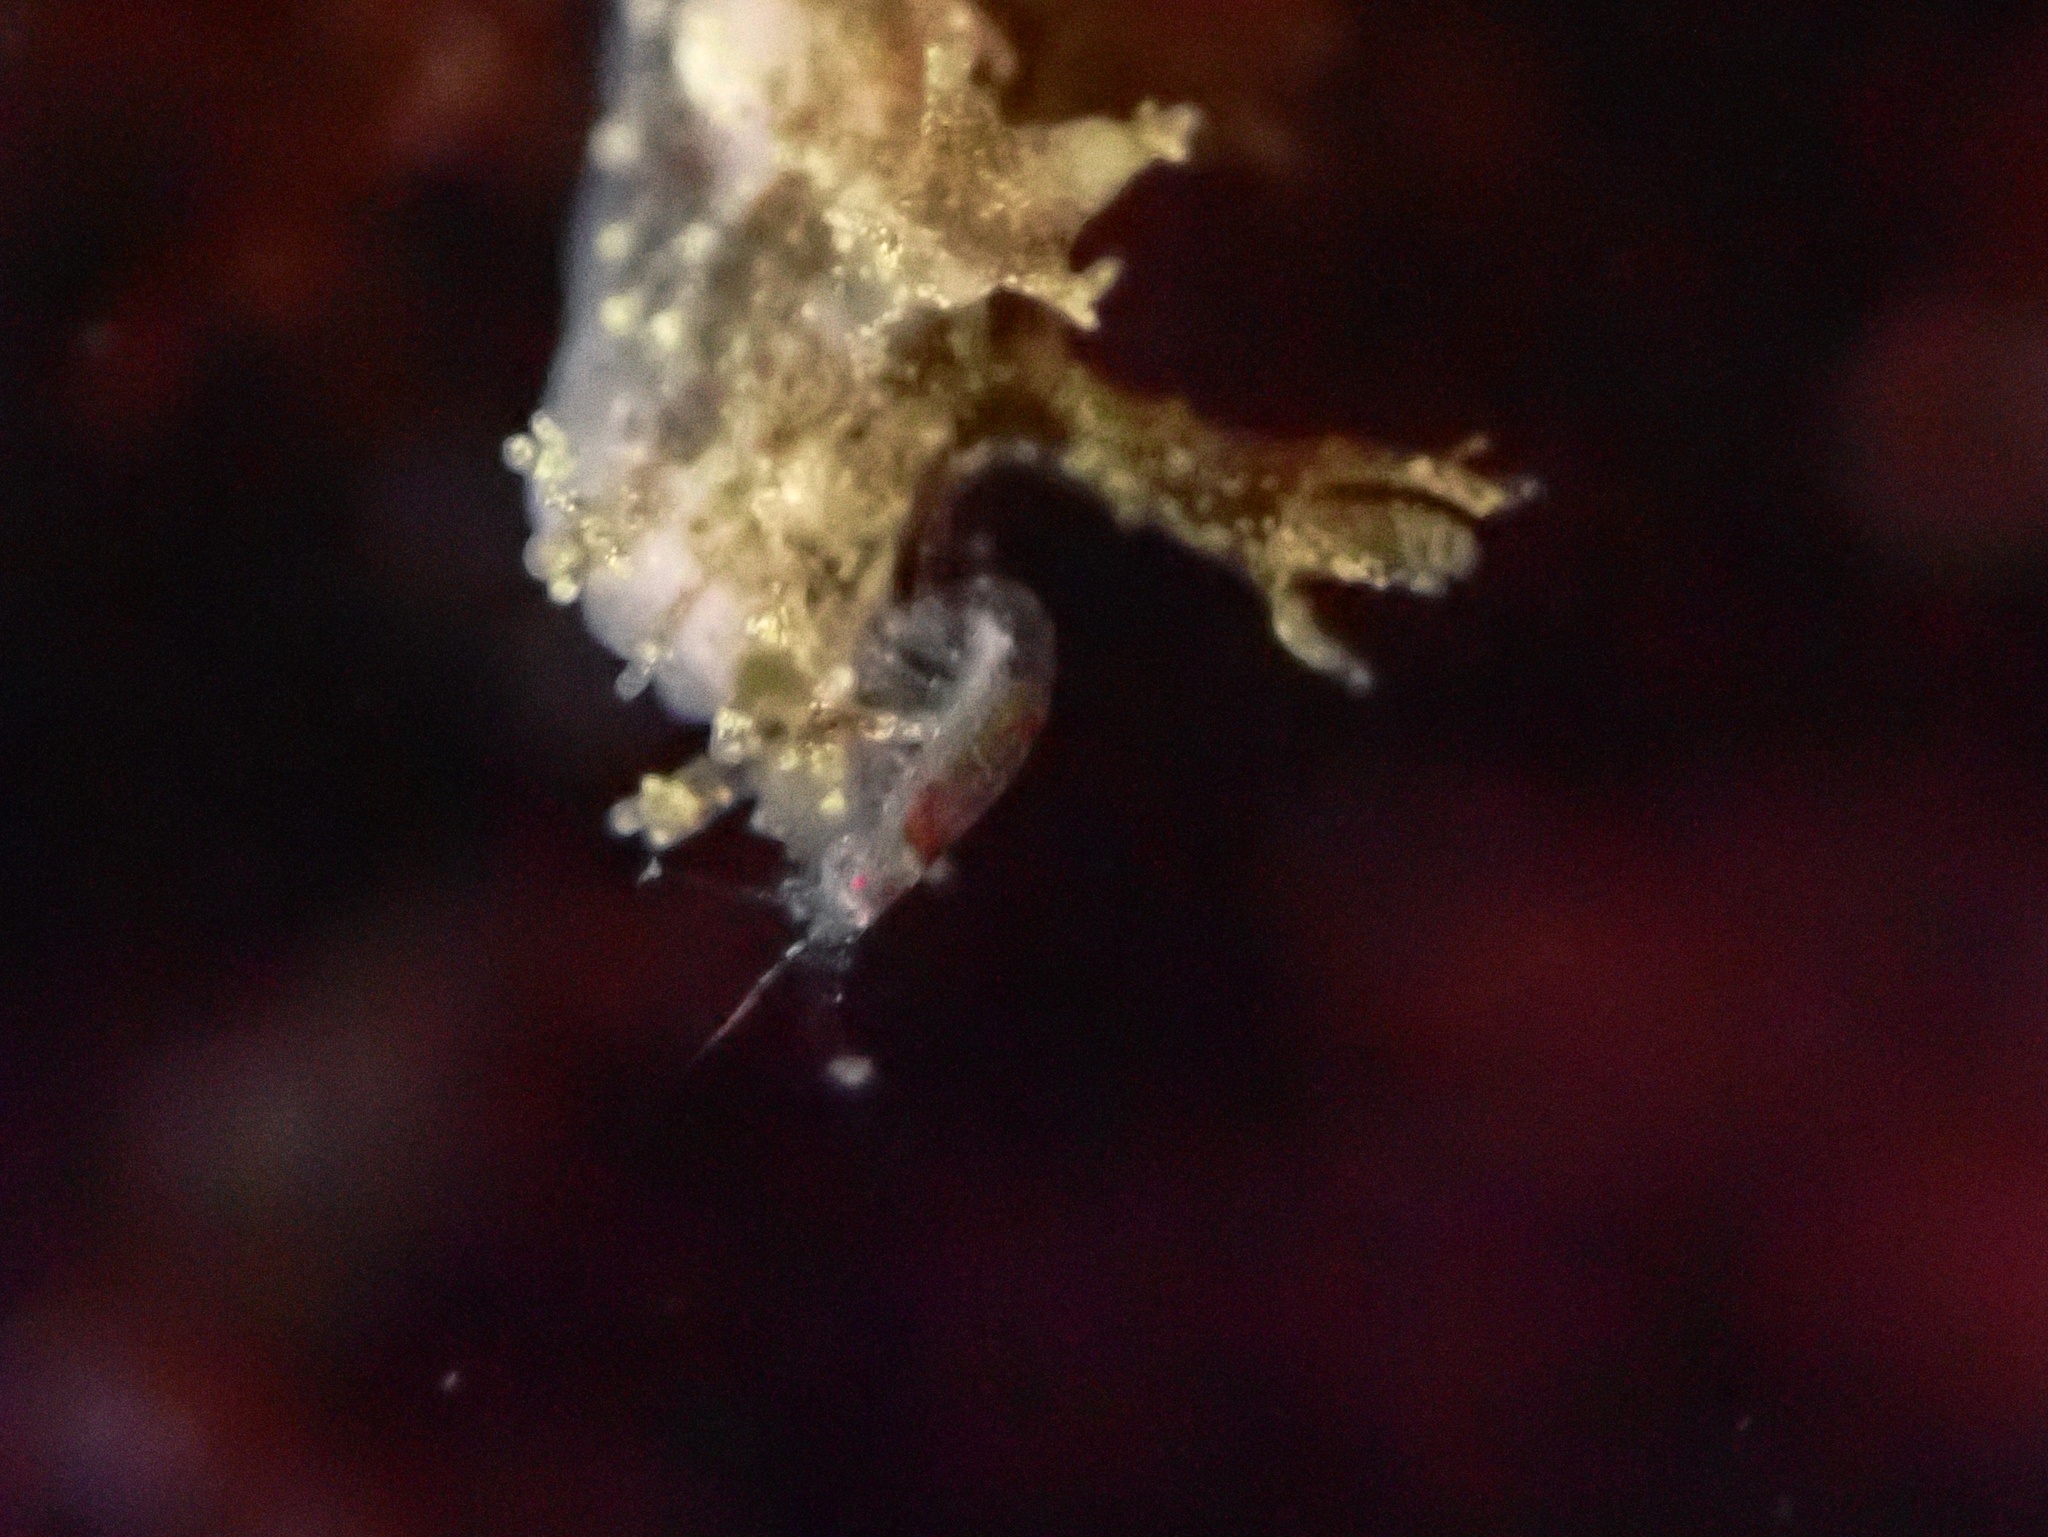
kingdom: Animalia
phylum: Mollusca
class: Gastropoda
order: Nudibranchia
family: Dendronotidae
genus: Dendronotus
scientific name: Dendronotus venustus
